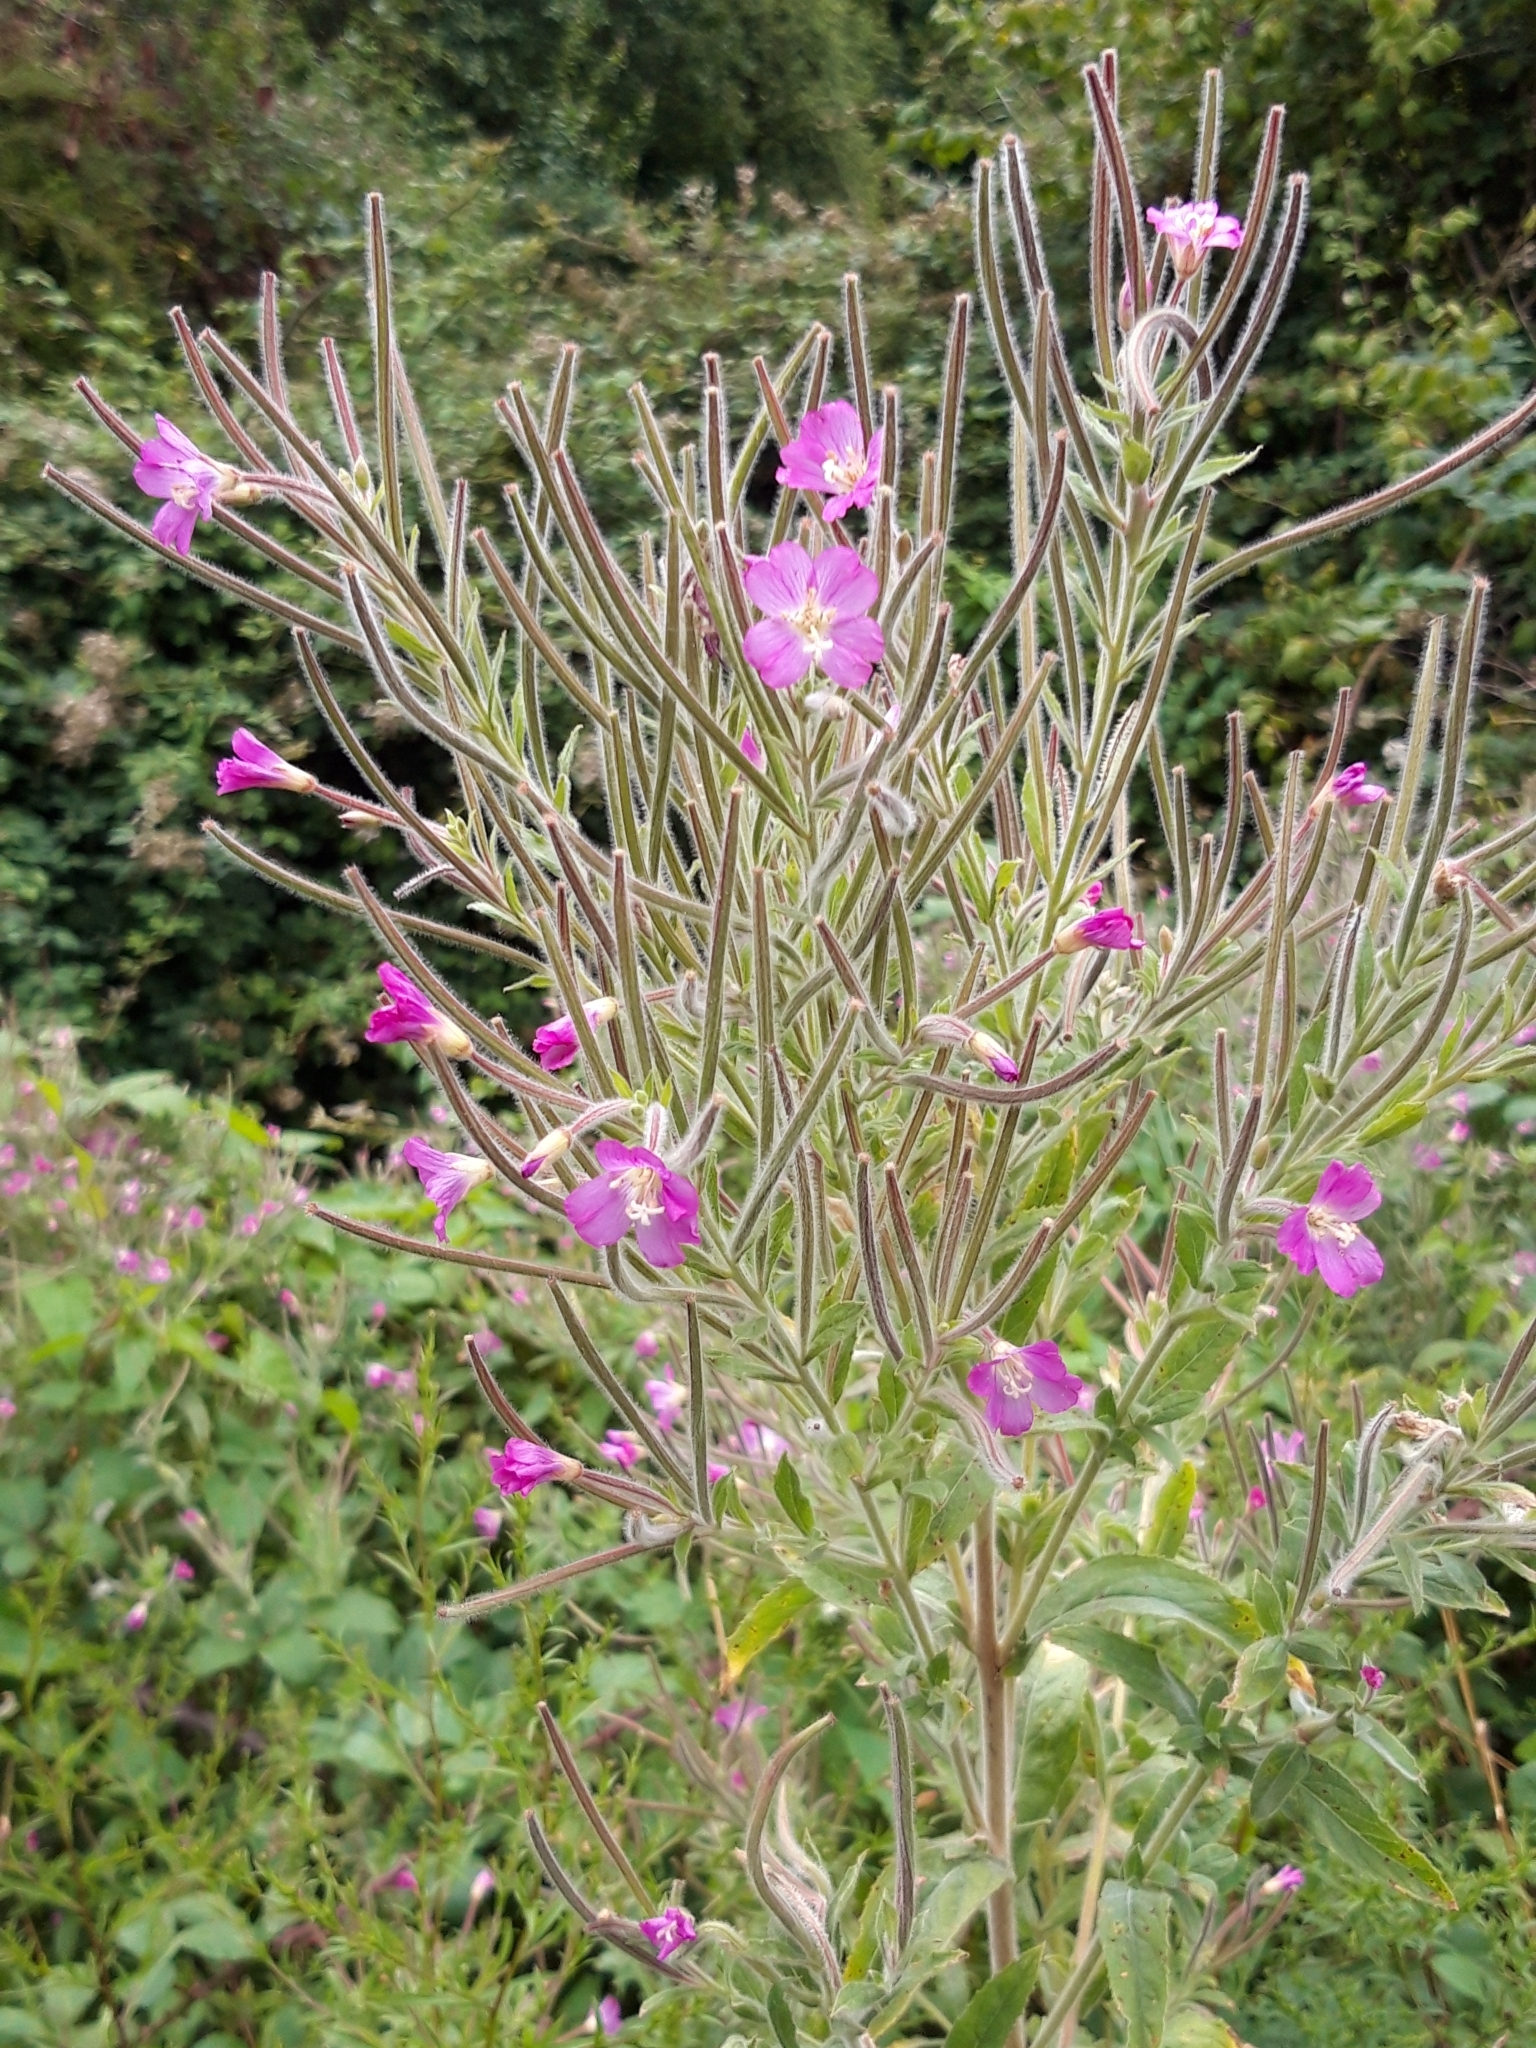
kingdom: Plantae
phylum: Tracheophyta
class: Magnoliopsida
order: Myrtales
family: Onagraceae
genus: Epilobium
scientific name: Epilobium hirsutum
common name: Great willowherb
